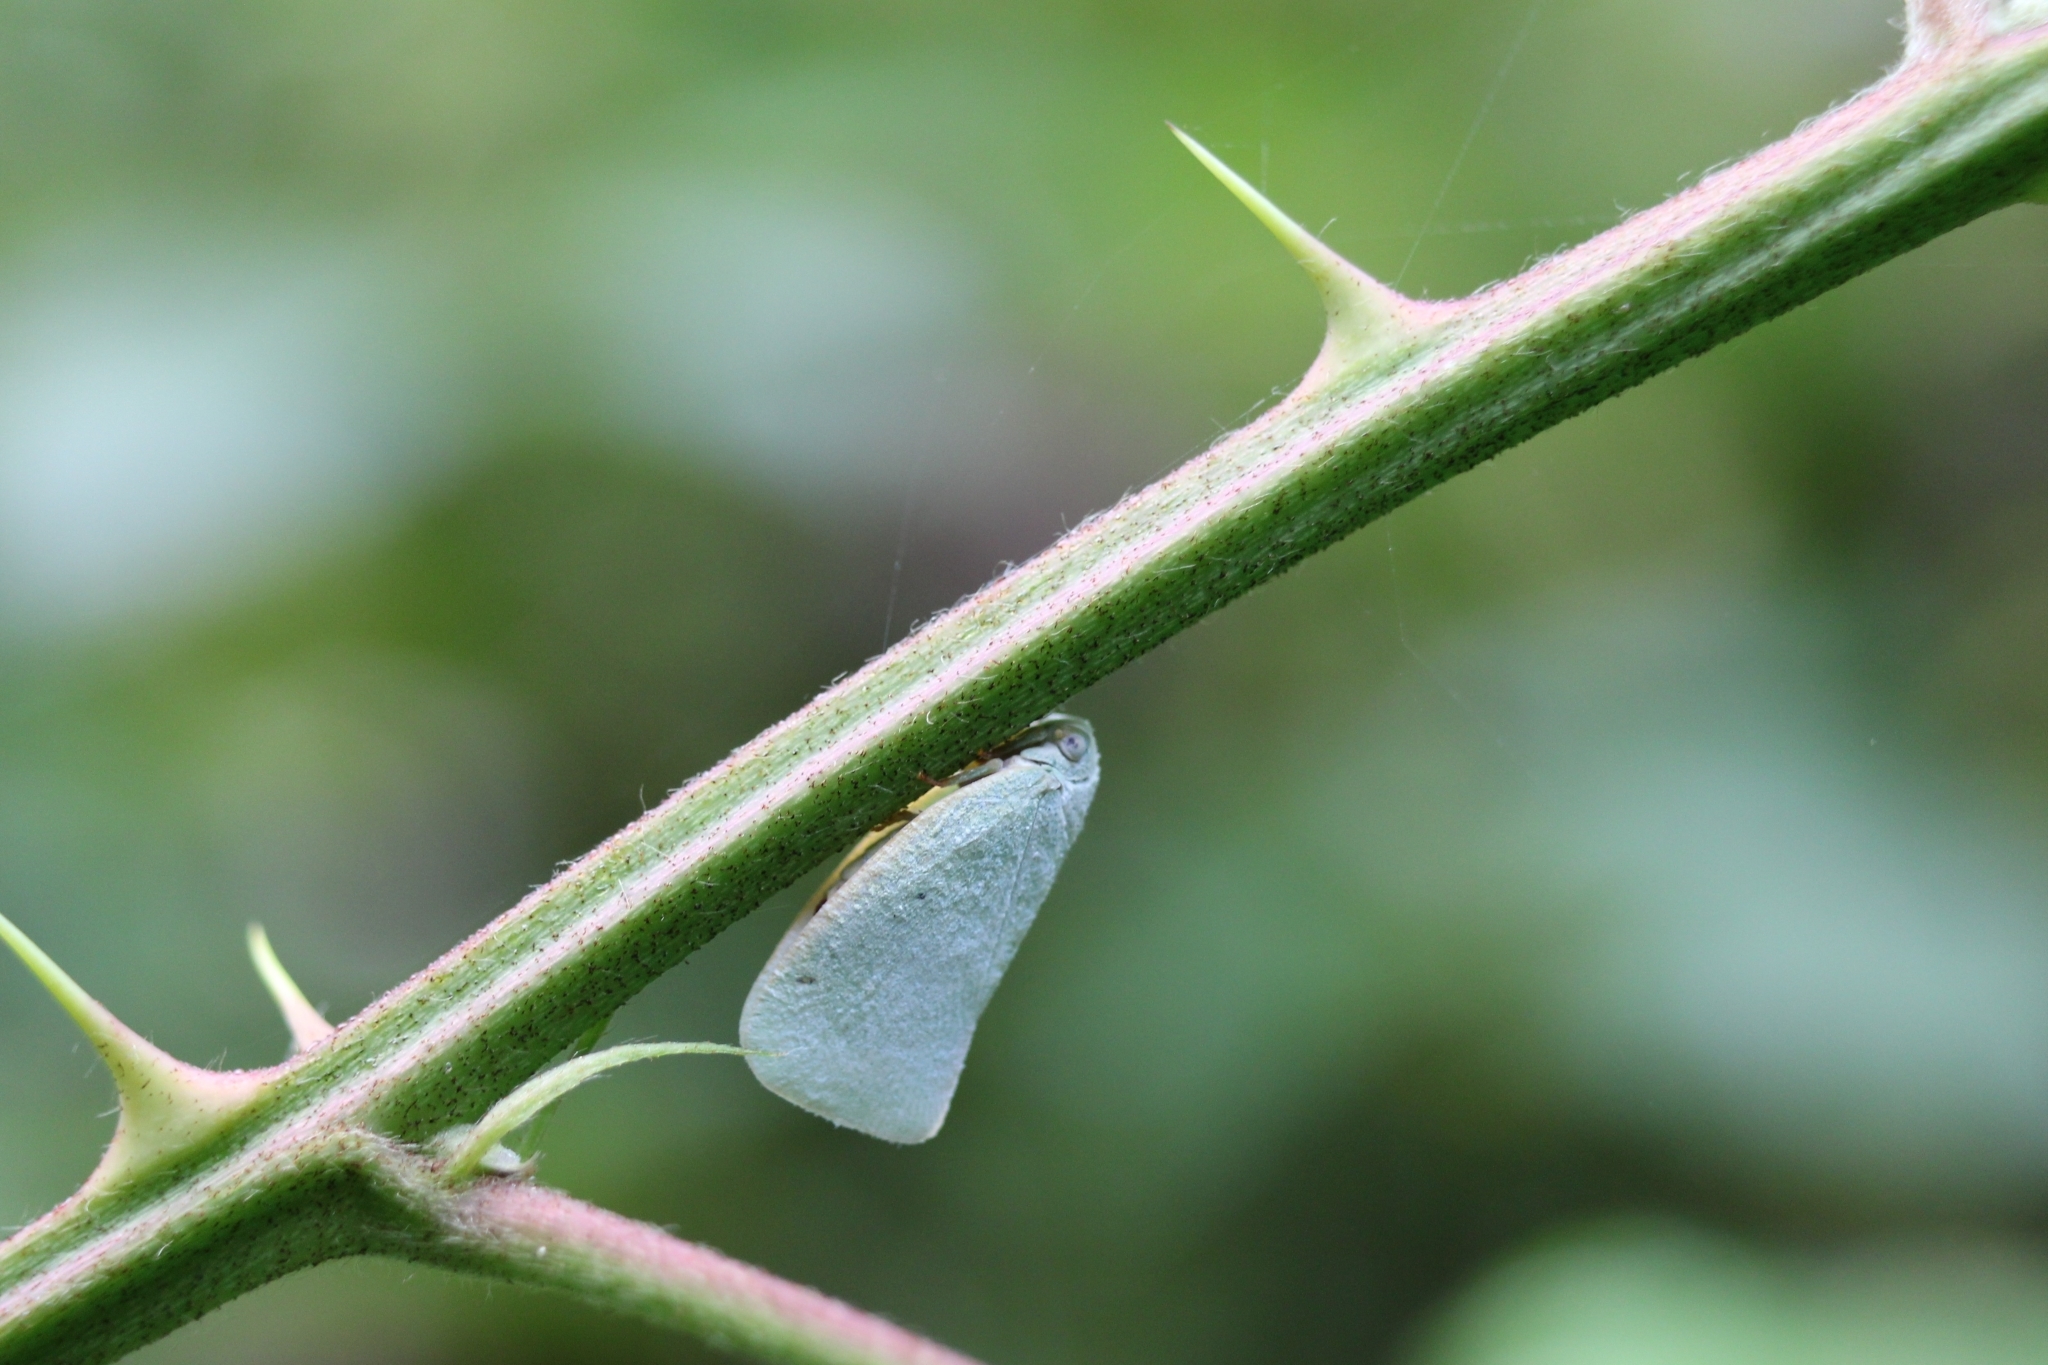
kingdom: Animalia
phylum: Arthropoda
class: Insecta
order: Hemiptera
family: Flatidae
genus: Flatormenis
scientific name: Flatormenis proxima
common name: Northern flatid planthopper
